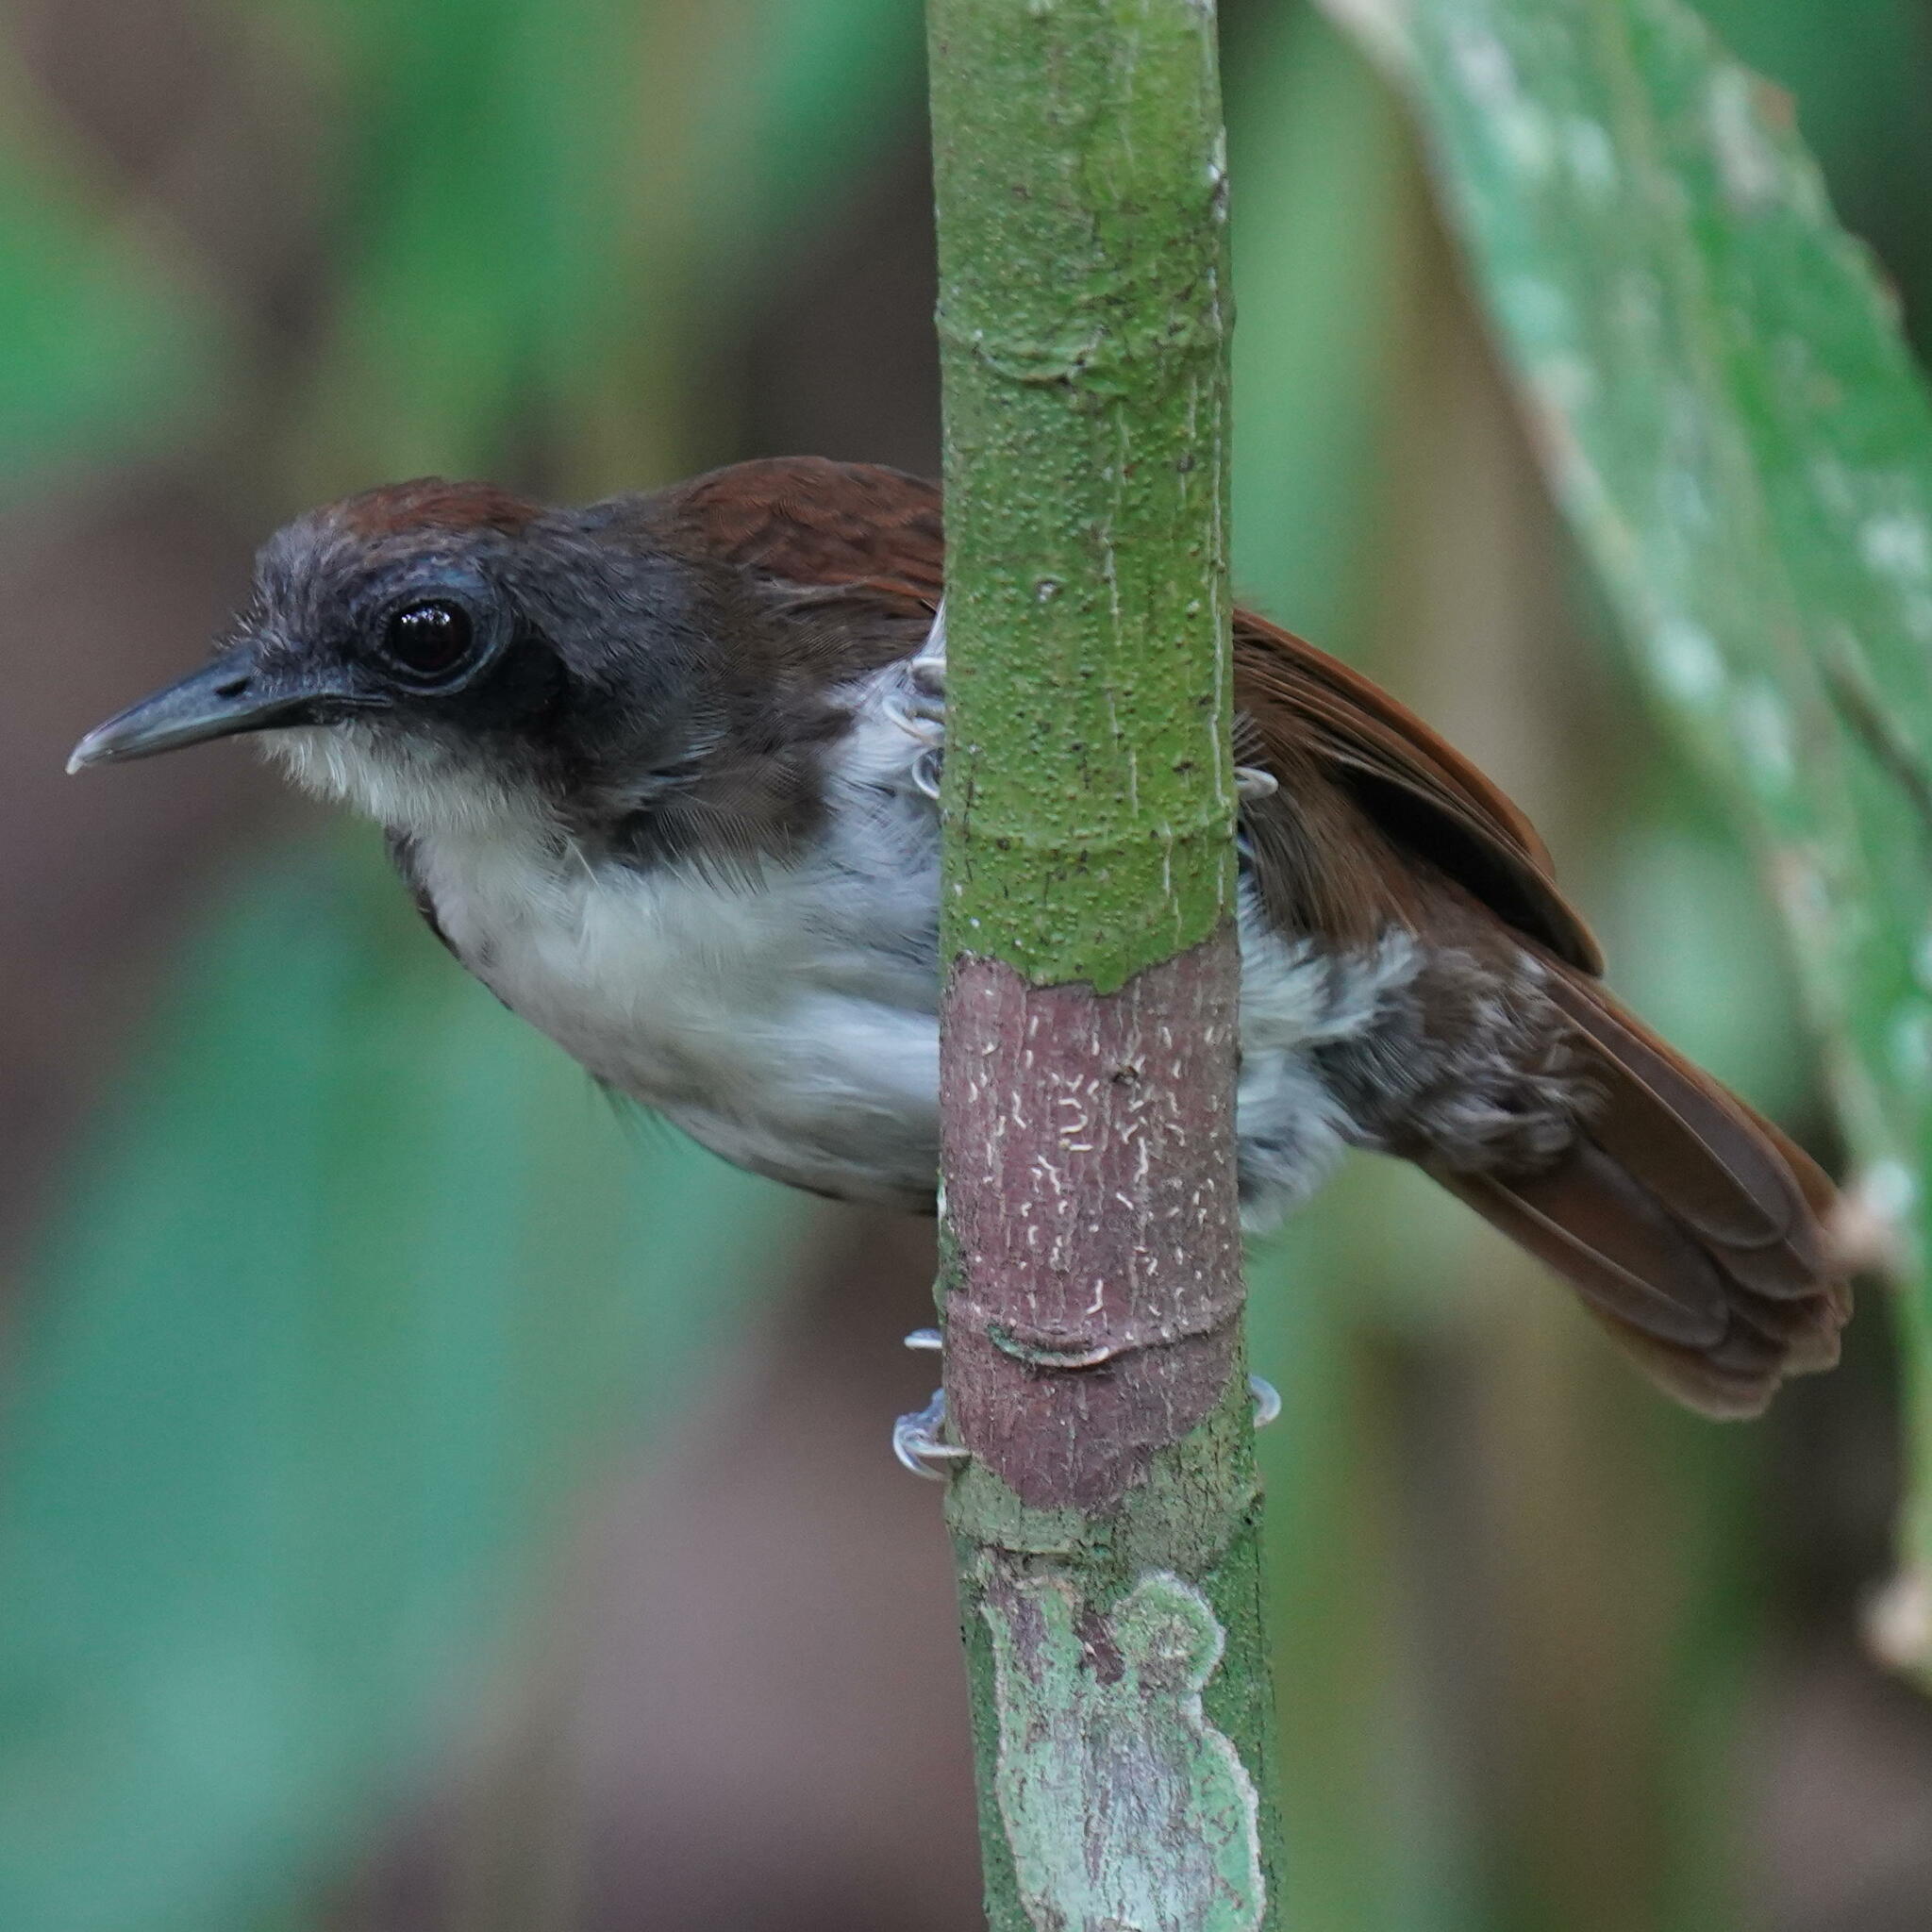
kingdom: Animalia
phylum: Chordata
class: Aves
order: Passeriformes
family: Thamnophilidae
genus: Gymnopithys
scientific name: Gymnopithys leucaspis
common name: White-cheeked antbird
